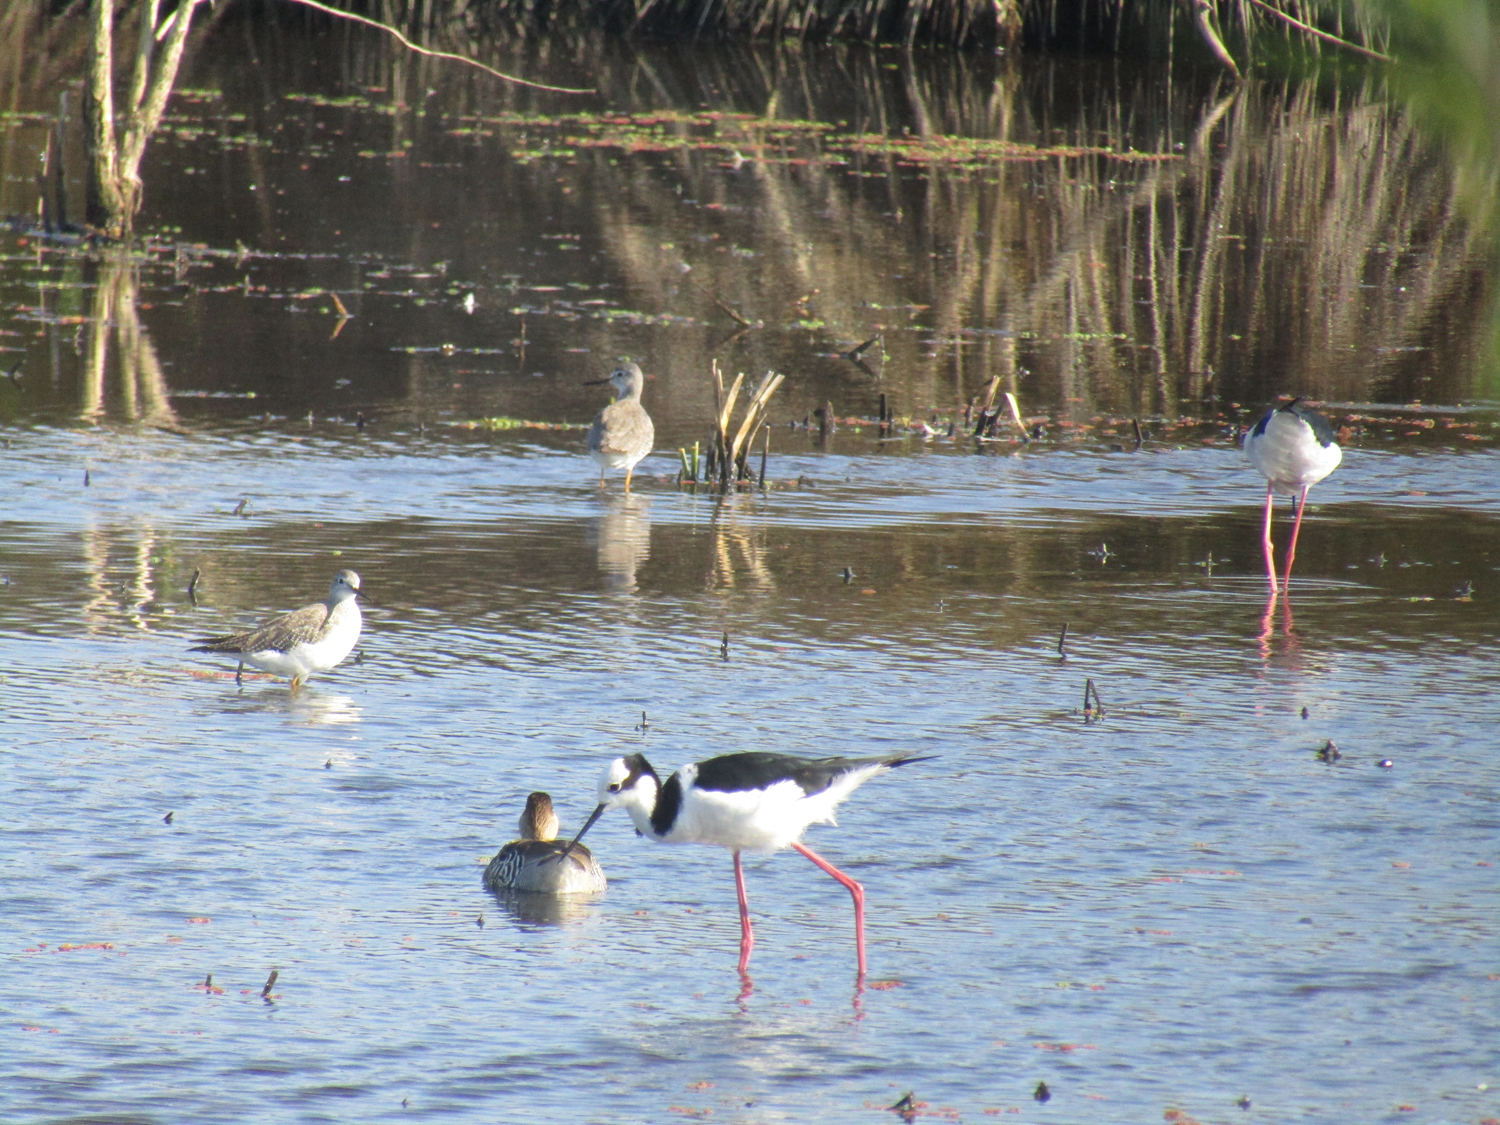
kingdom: Animalia
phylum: Chordata
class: Aves
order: Charadriiformes
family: Recurvirostridae
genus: Himantopus
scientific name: Himantopus mexicanus
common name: Black-necked stilt
